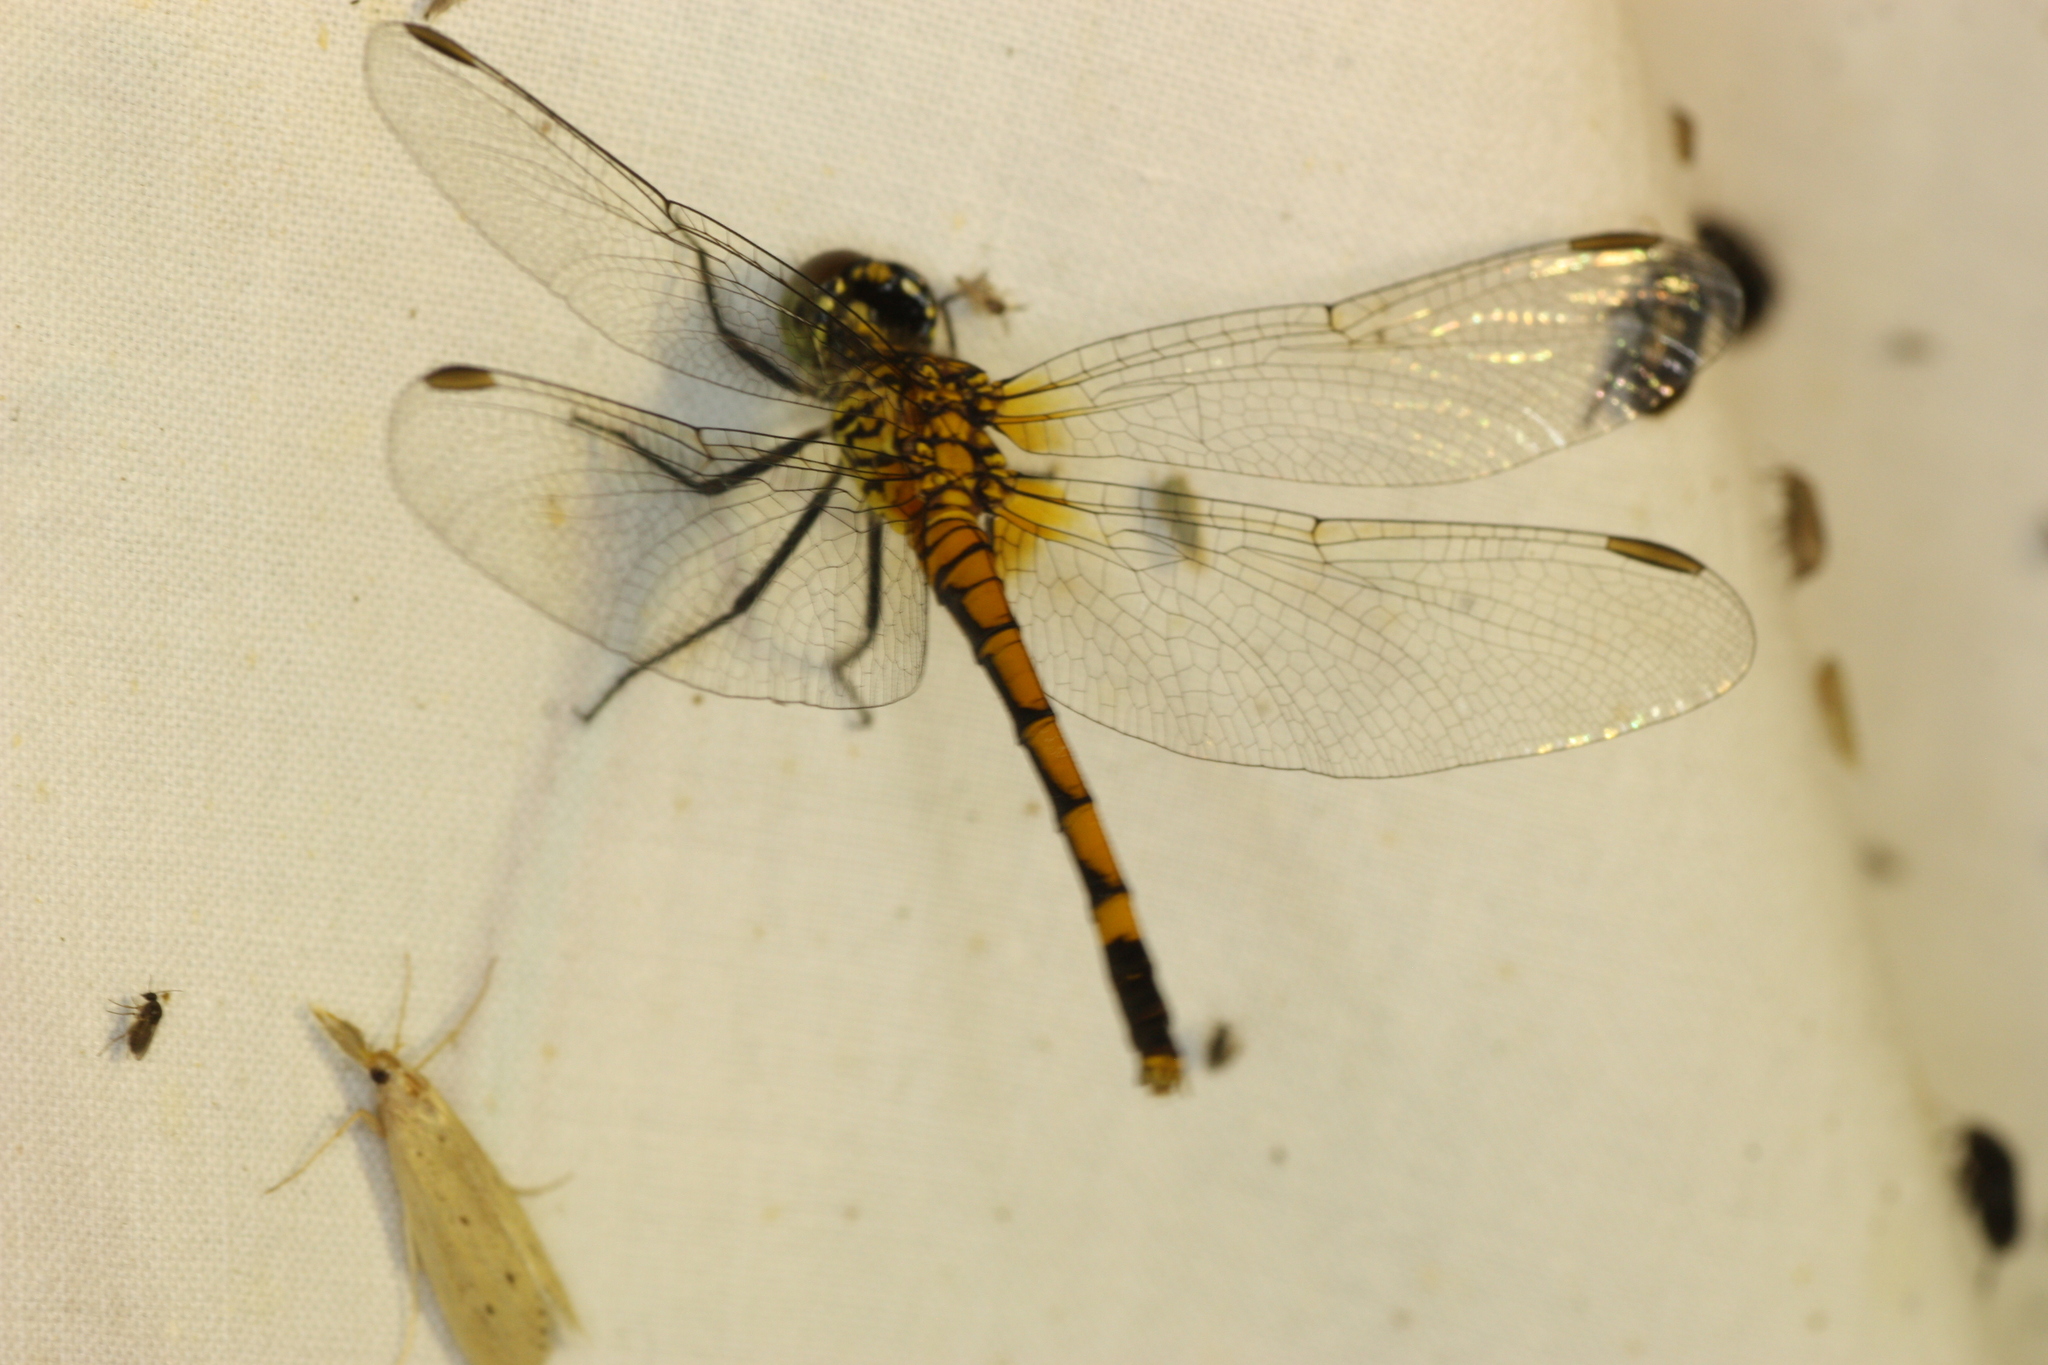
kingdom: Animalia
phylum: Arthropoda
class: Insecta
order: Odonata
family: Libellulidae
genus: Erythrodiplax
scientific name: Erythrodiplax berenice
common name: Seaside dragonlet
